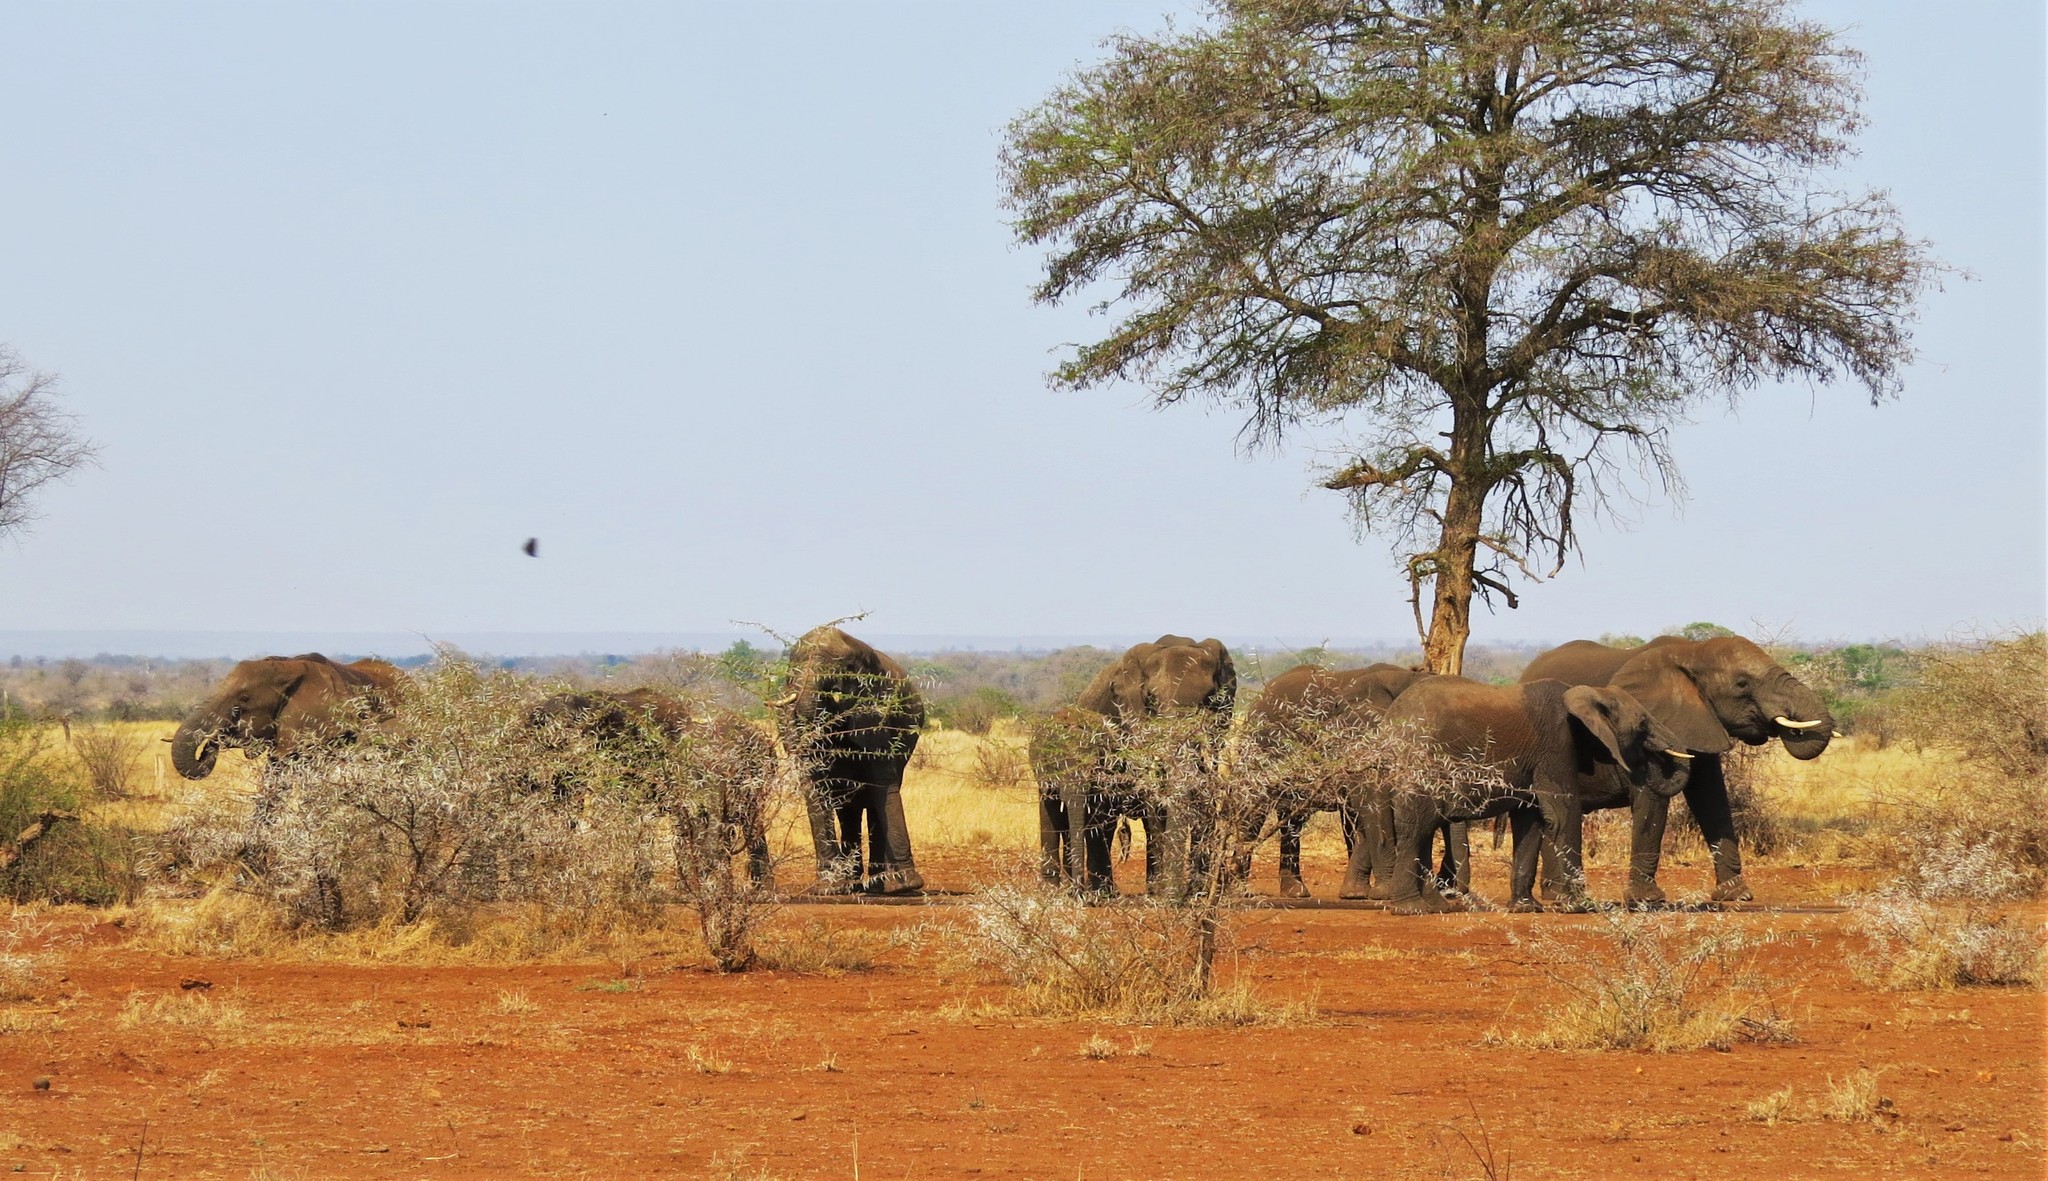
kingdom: Animalia
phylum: Chordata
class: Mammalia
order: Proboscidea
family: Elephantidae
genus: Loxodonta
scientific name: Loxodonta africana
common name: African elephant
